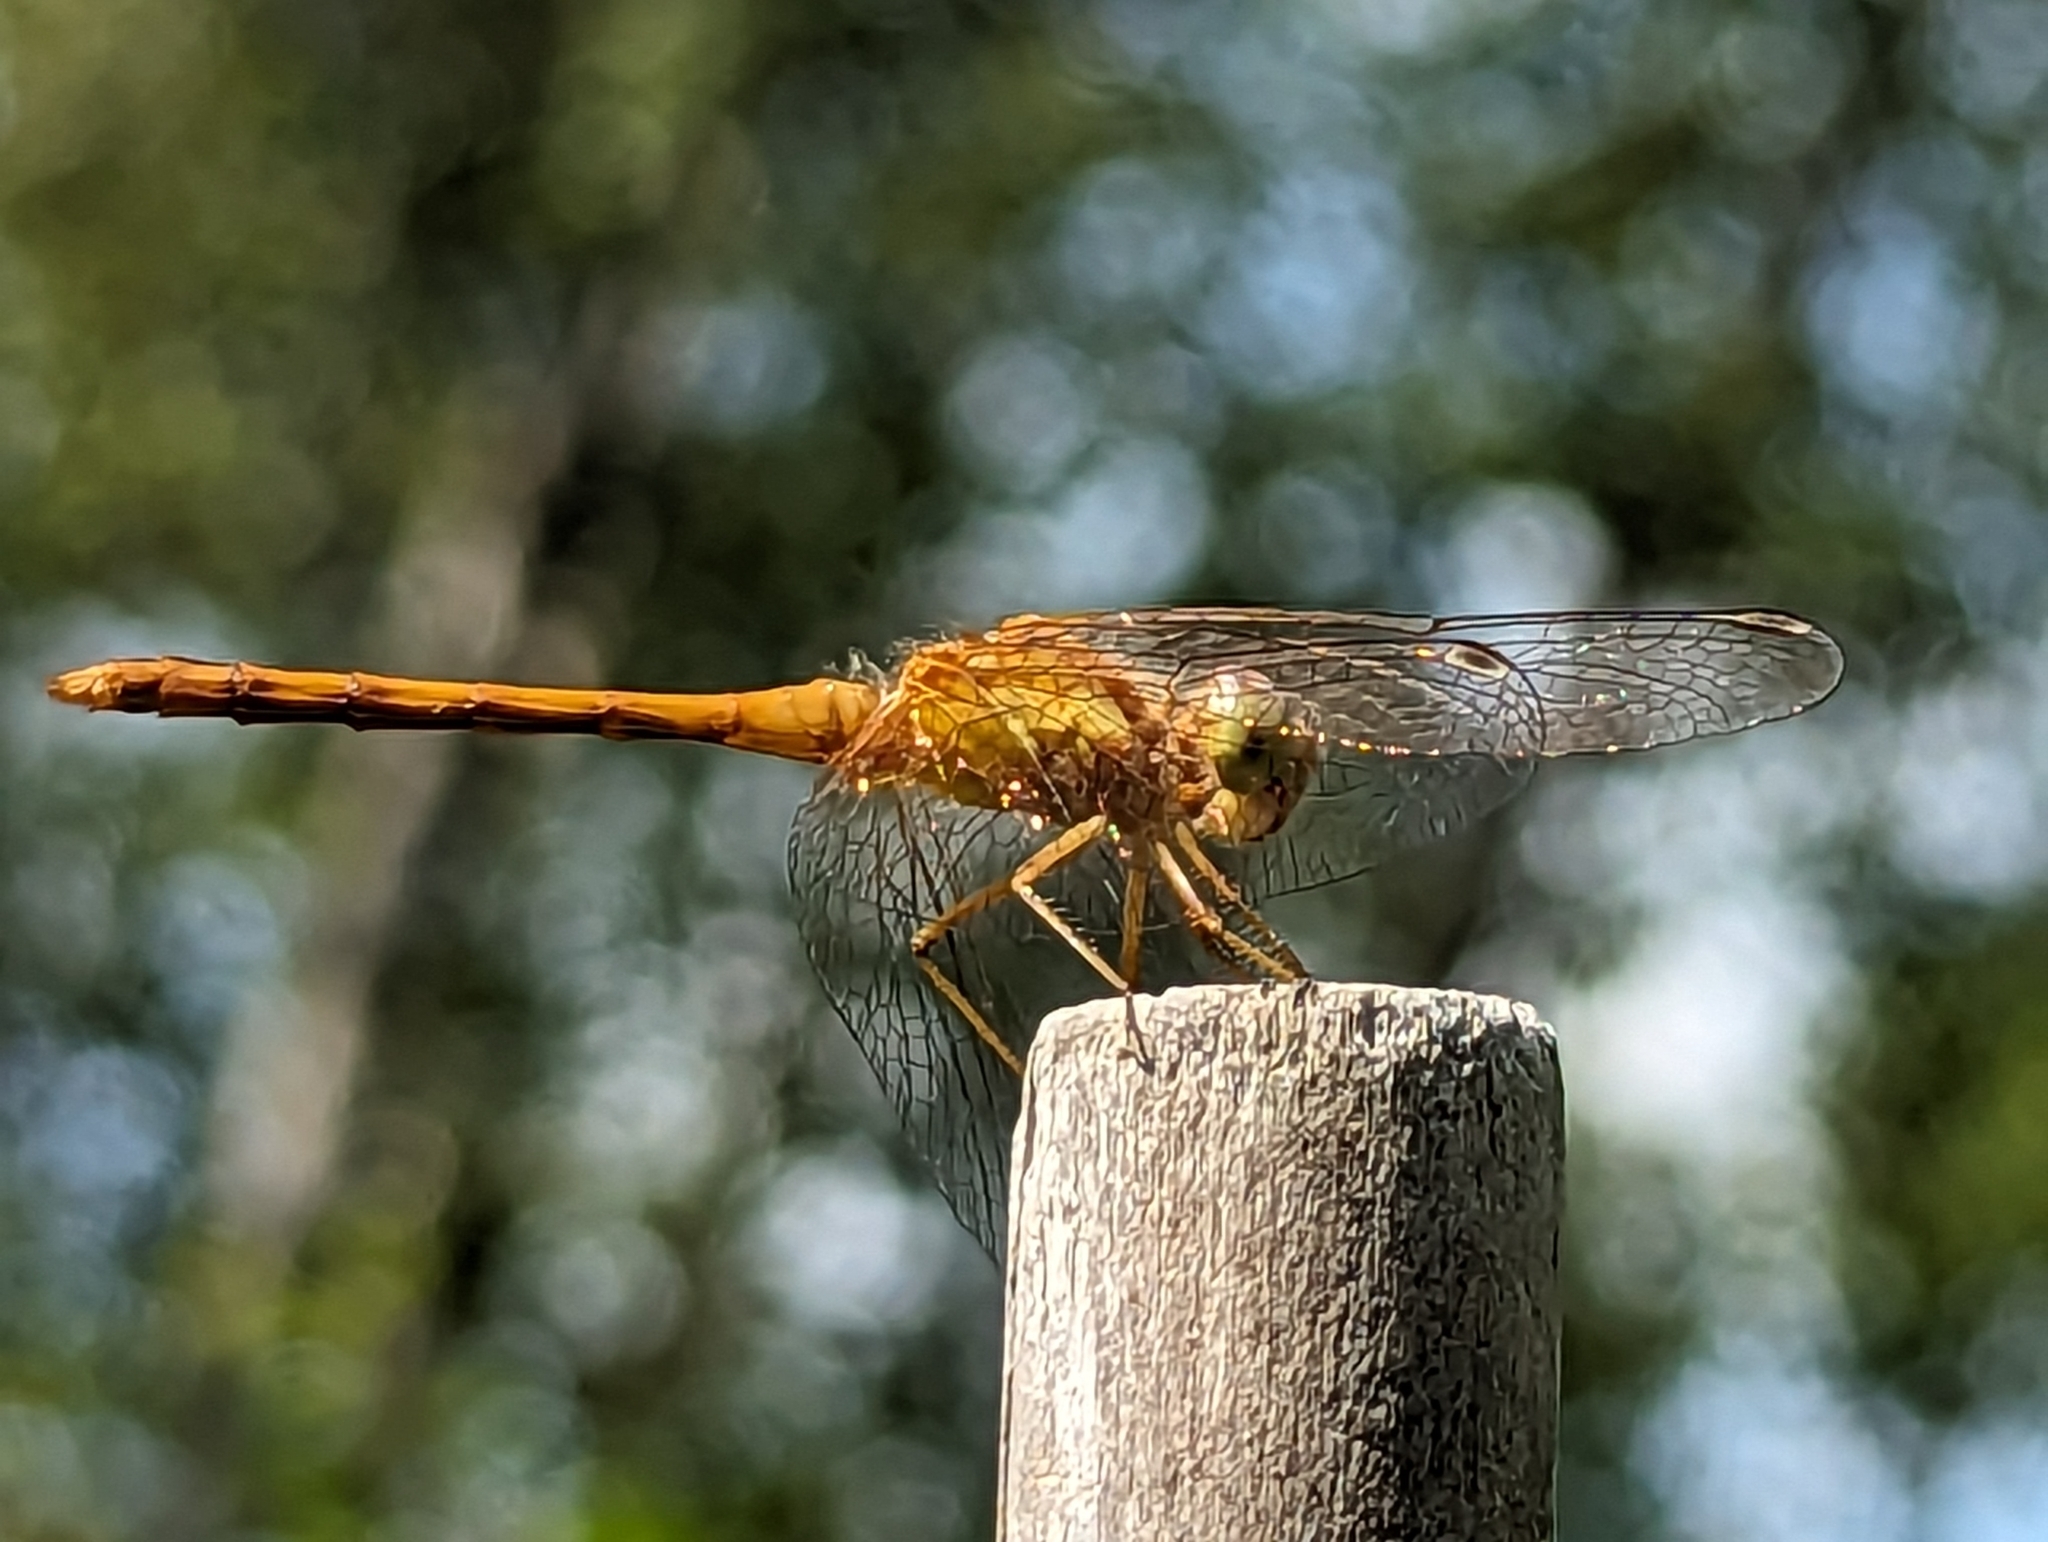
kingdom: Animalia
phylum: Arthropoda
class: Insecta
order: Odonata
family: Libellulidae
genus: Sympetrum
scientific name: Sympetrum vicinum
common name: Autumn meadowhawk
